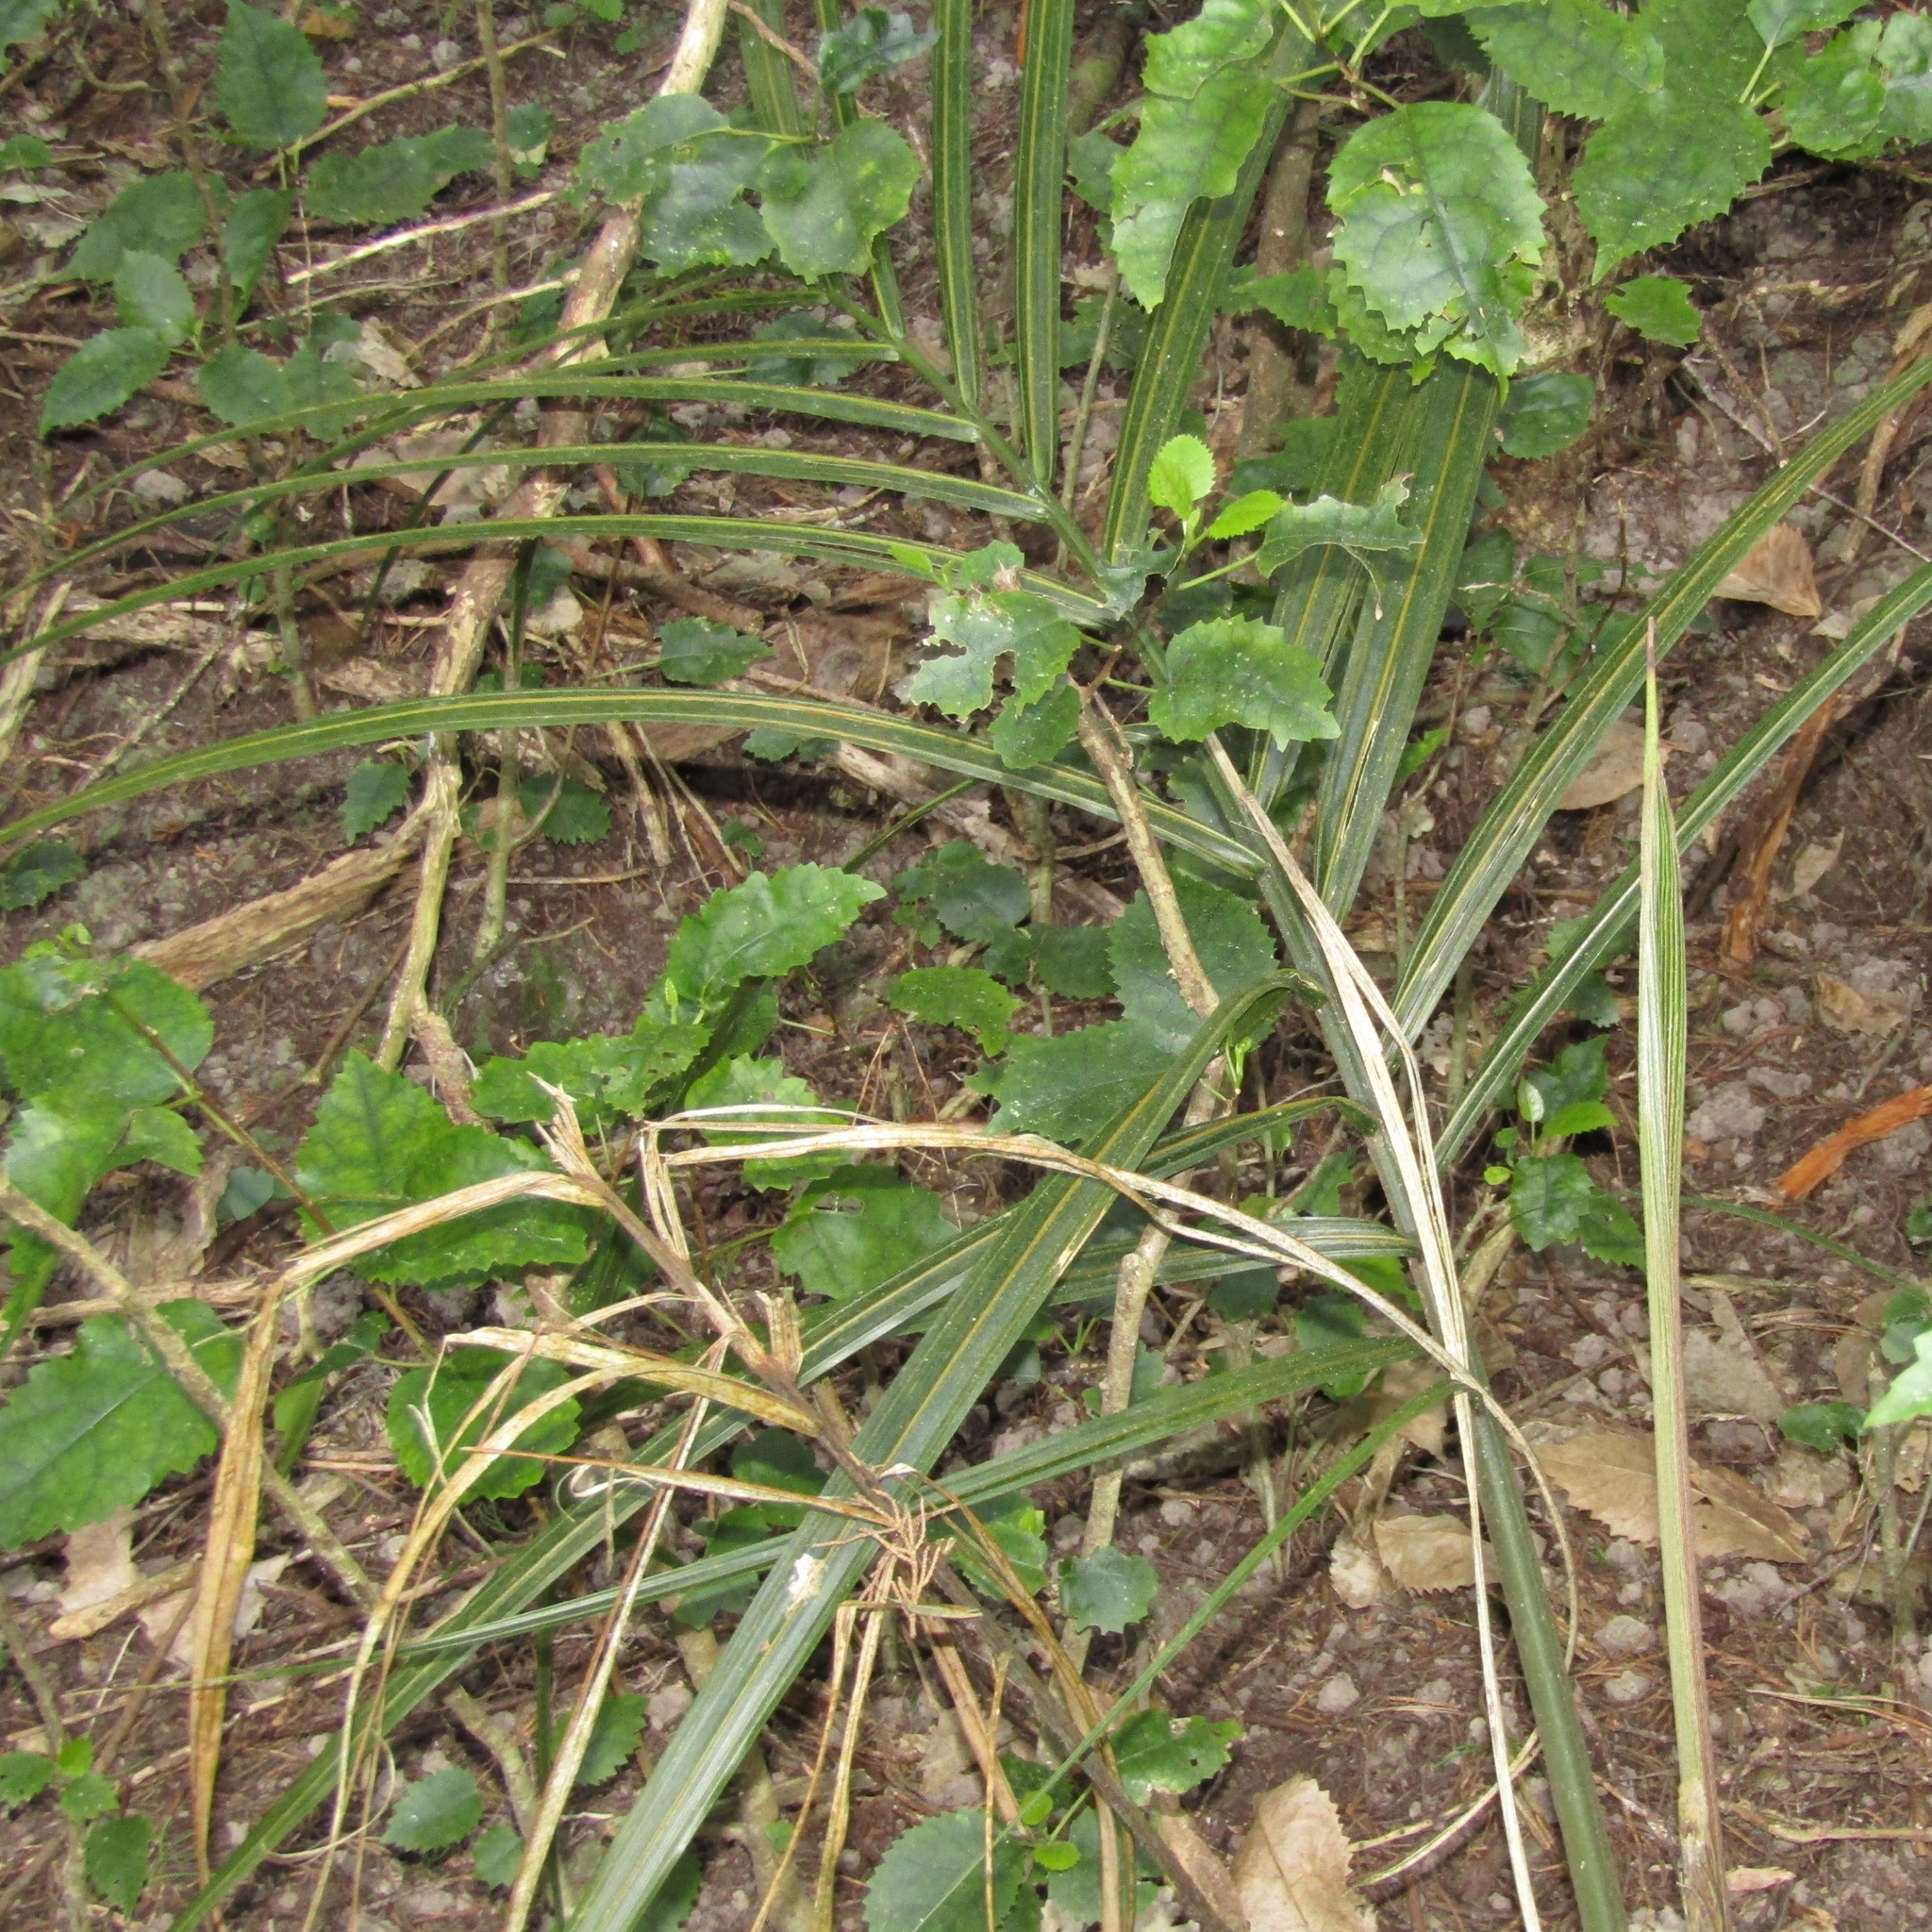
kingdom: Plantae
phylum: Tracheophyta
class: Liliopsida
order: Arecales
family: Arecaceae
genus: Rhopalostylis
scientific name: Rhopalostylis sapida
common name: Feather-duster palm
